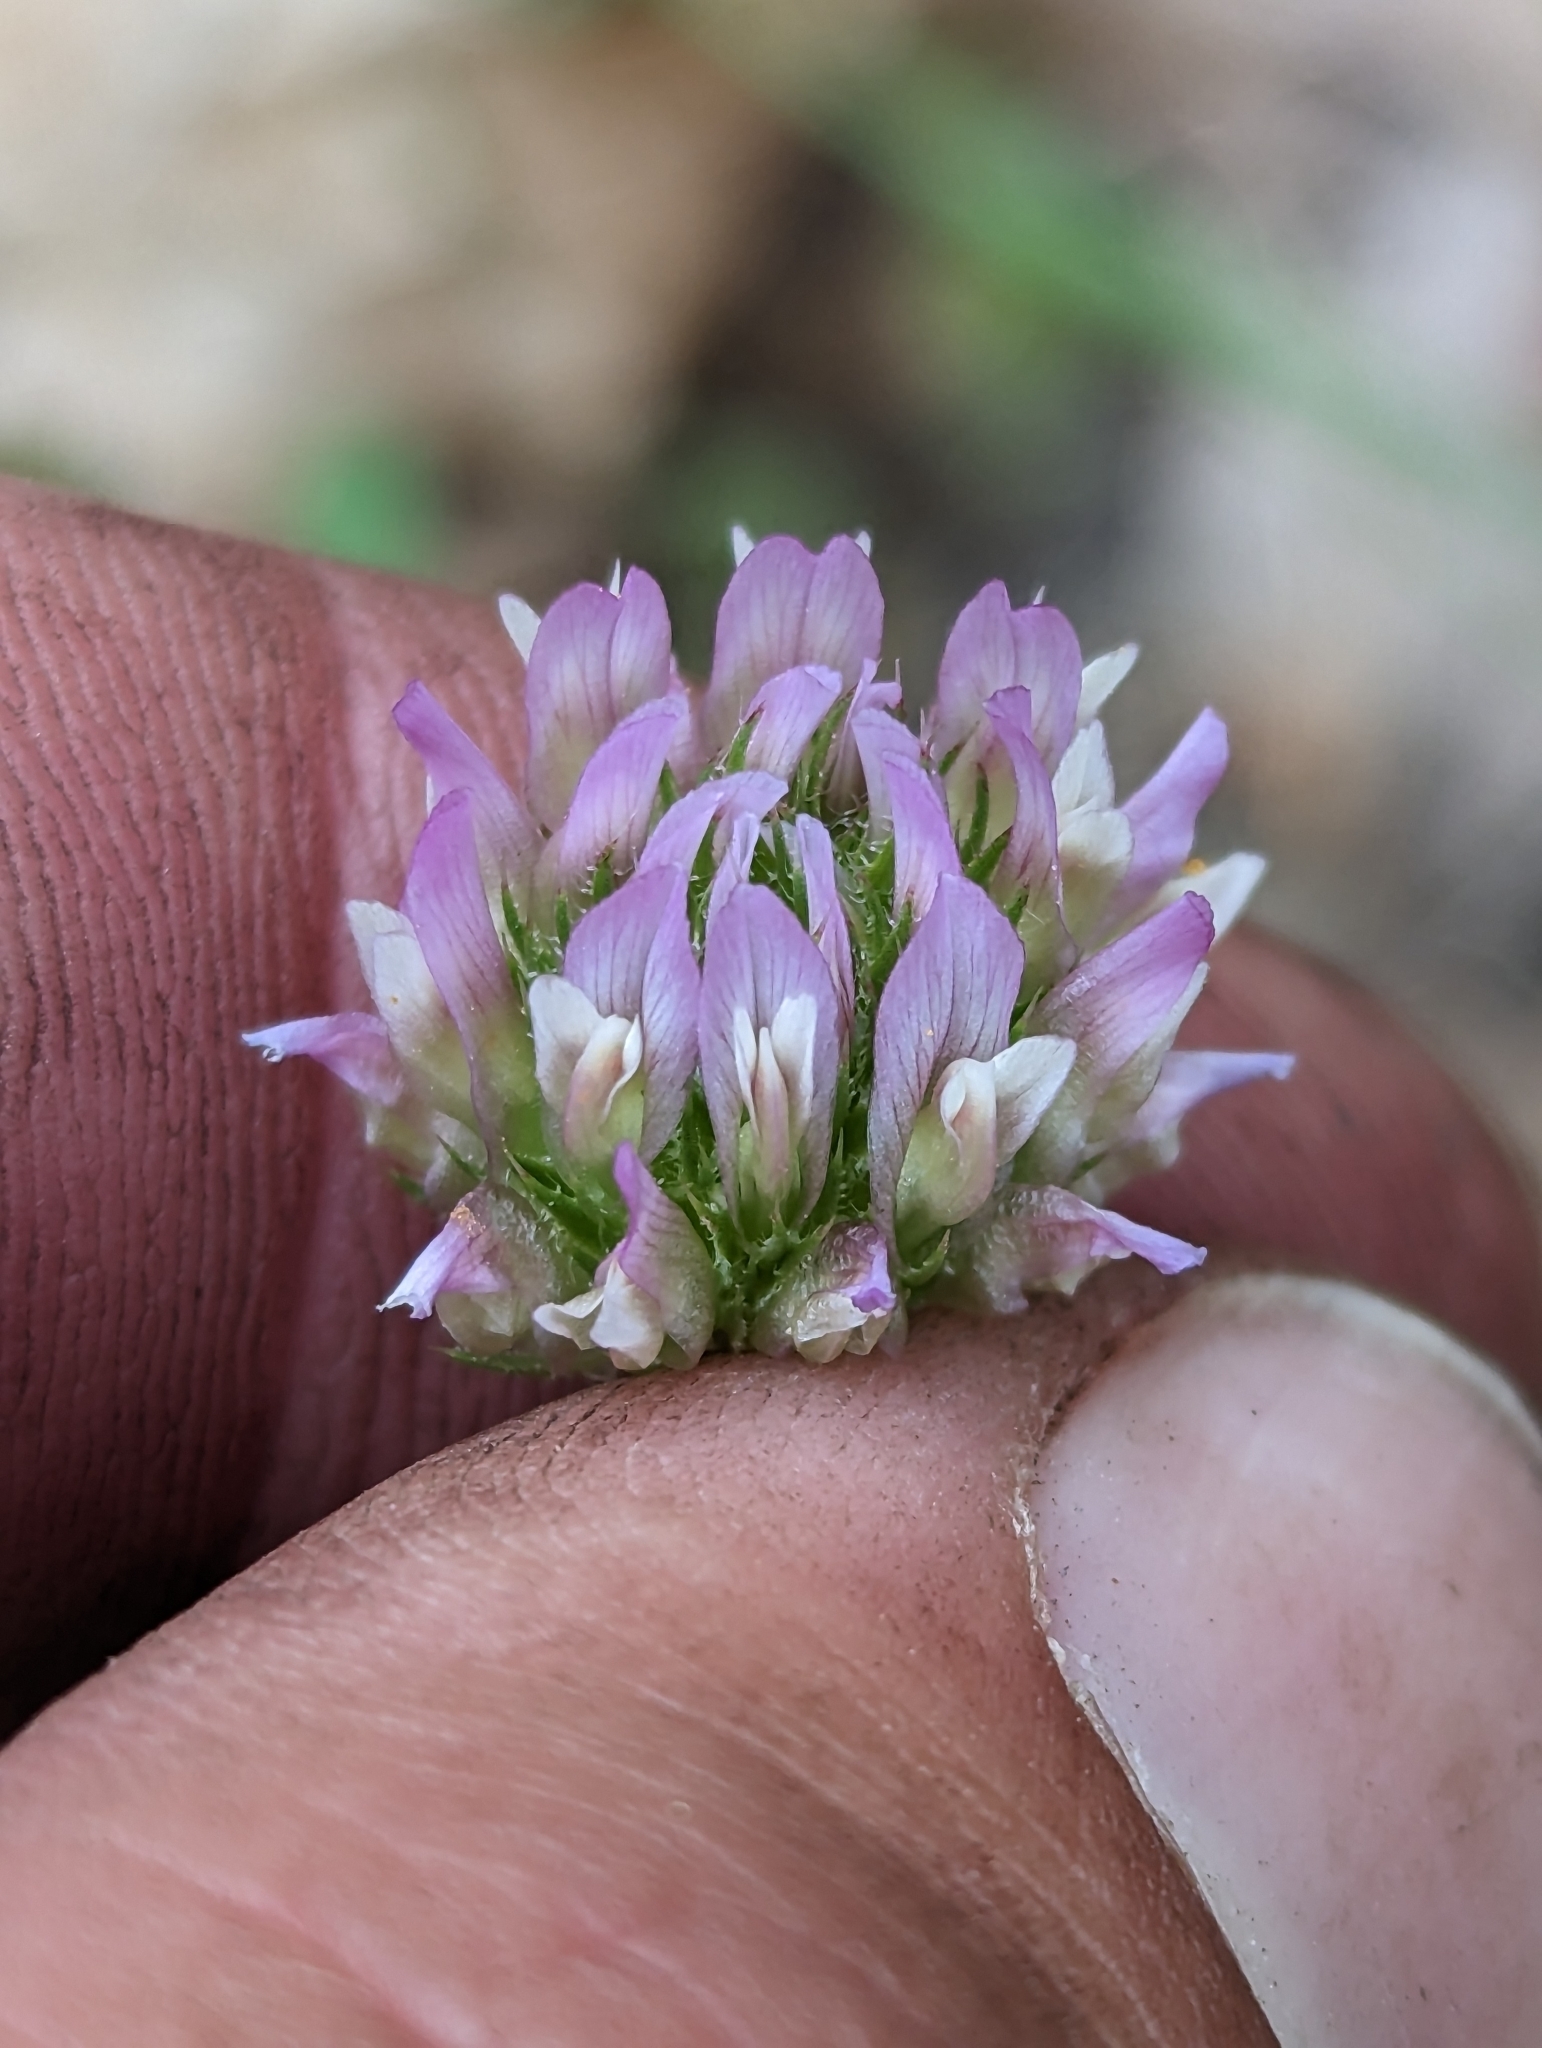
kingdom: Plantae
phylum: Tracheophyta
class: Magnoliopsida
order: Fabales
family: Fabaceae
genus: Trifolium
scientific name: Trifolium ciliolatum
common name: Foothill clover
